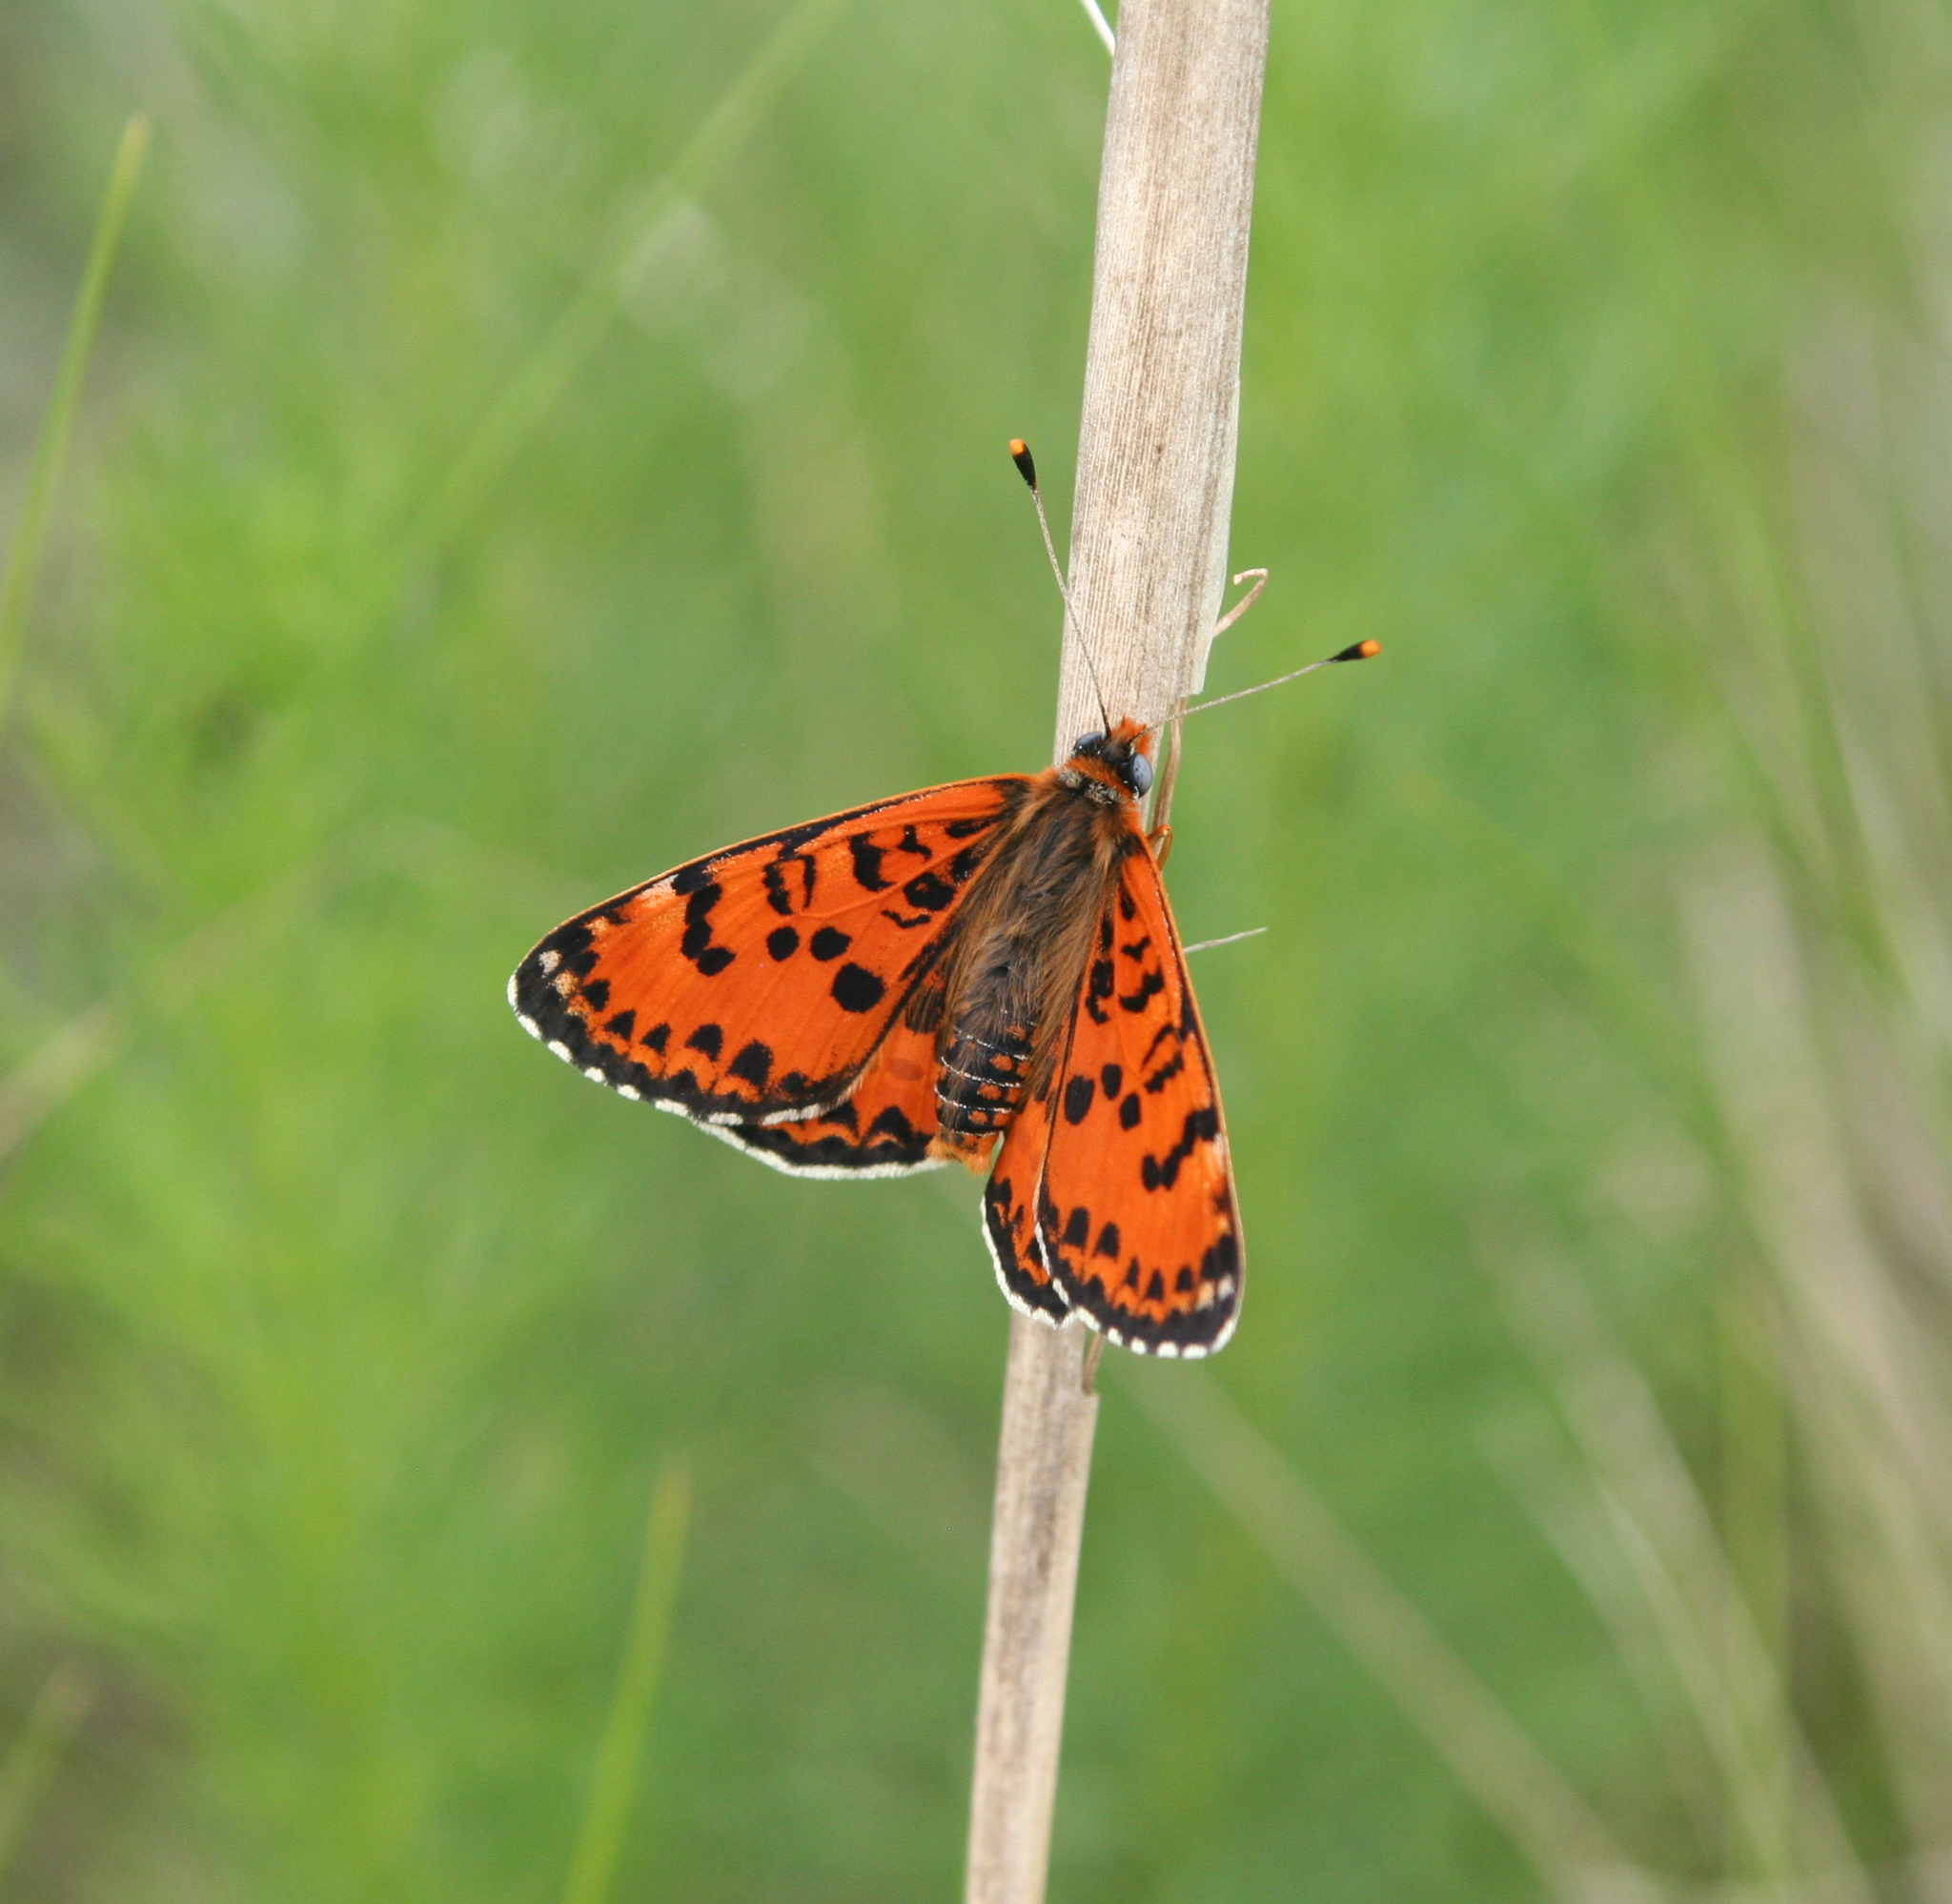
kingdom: Animalia
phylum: Arthropoda
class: Insecta
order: Lepidoptera
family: Nymphalidae
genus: Melitaea
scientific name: Melitaea didyma
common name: Spotted fritillary
